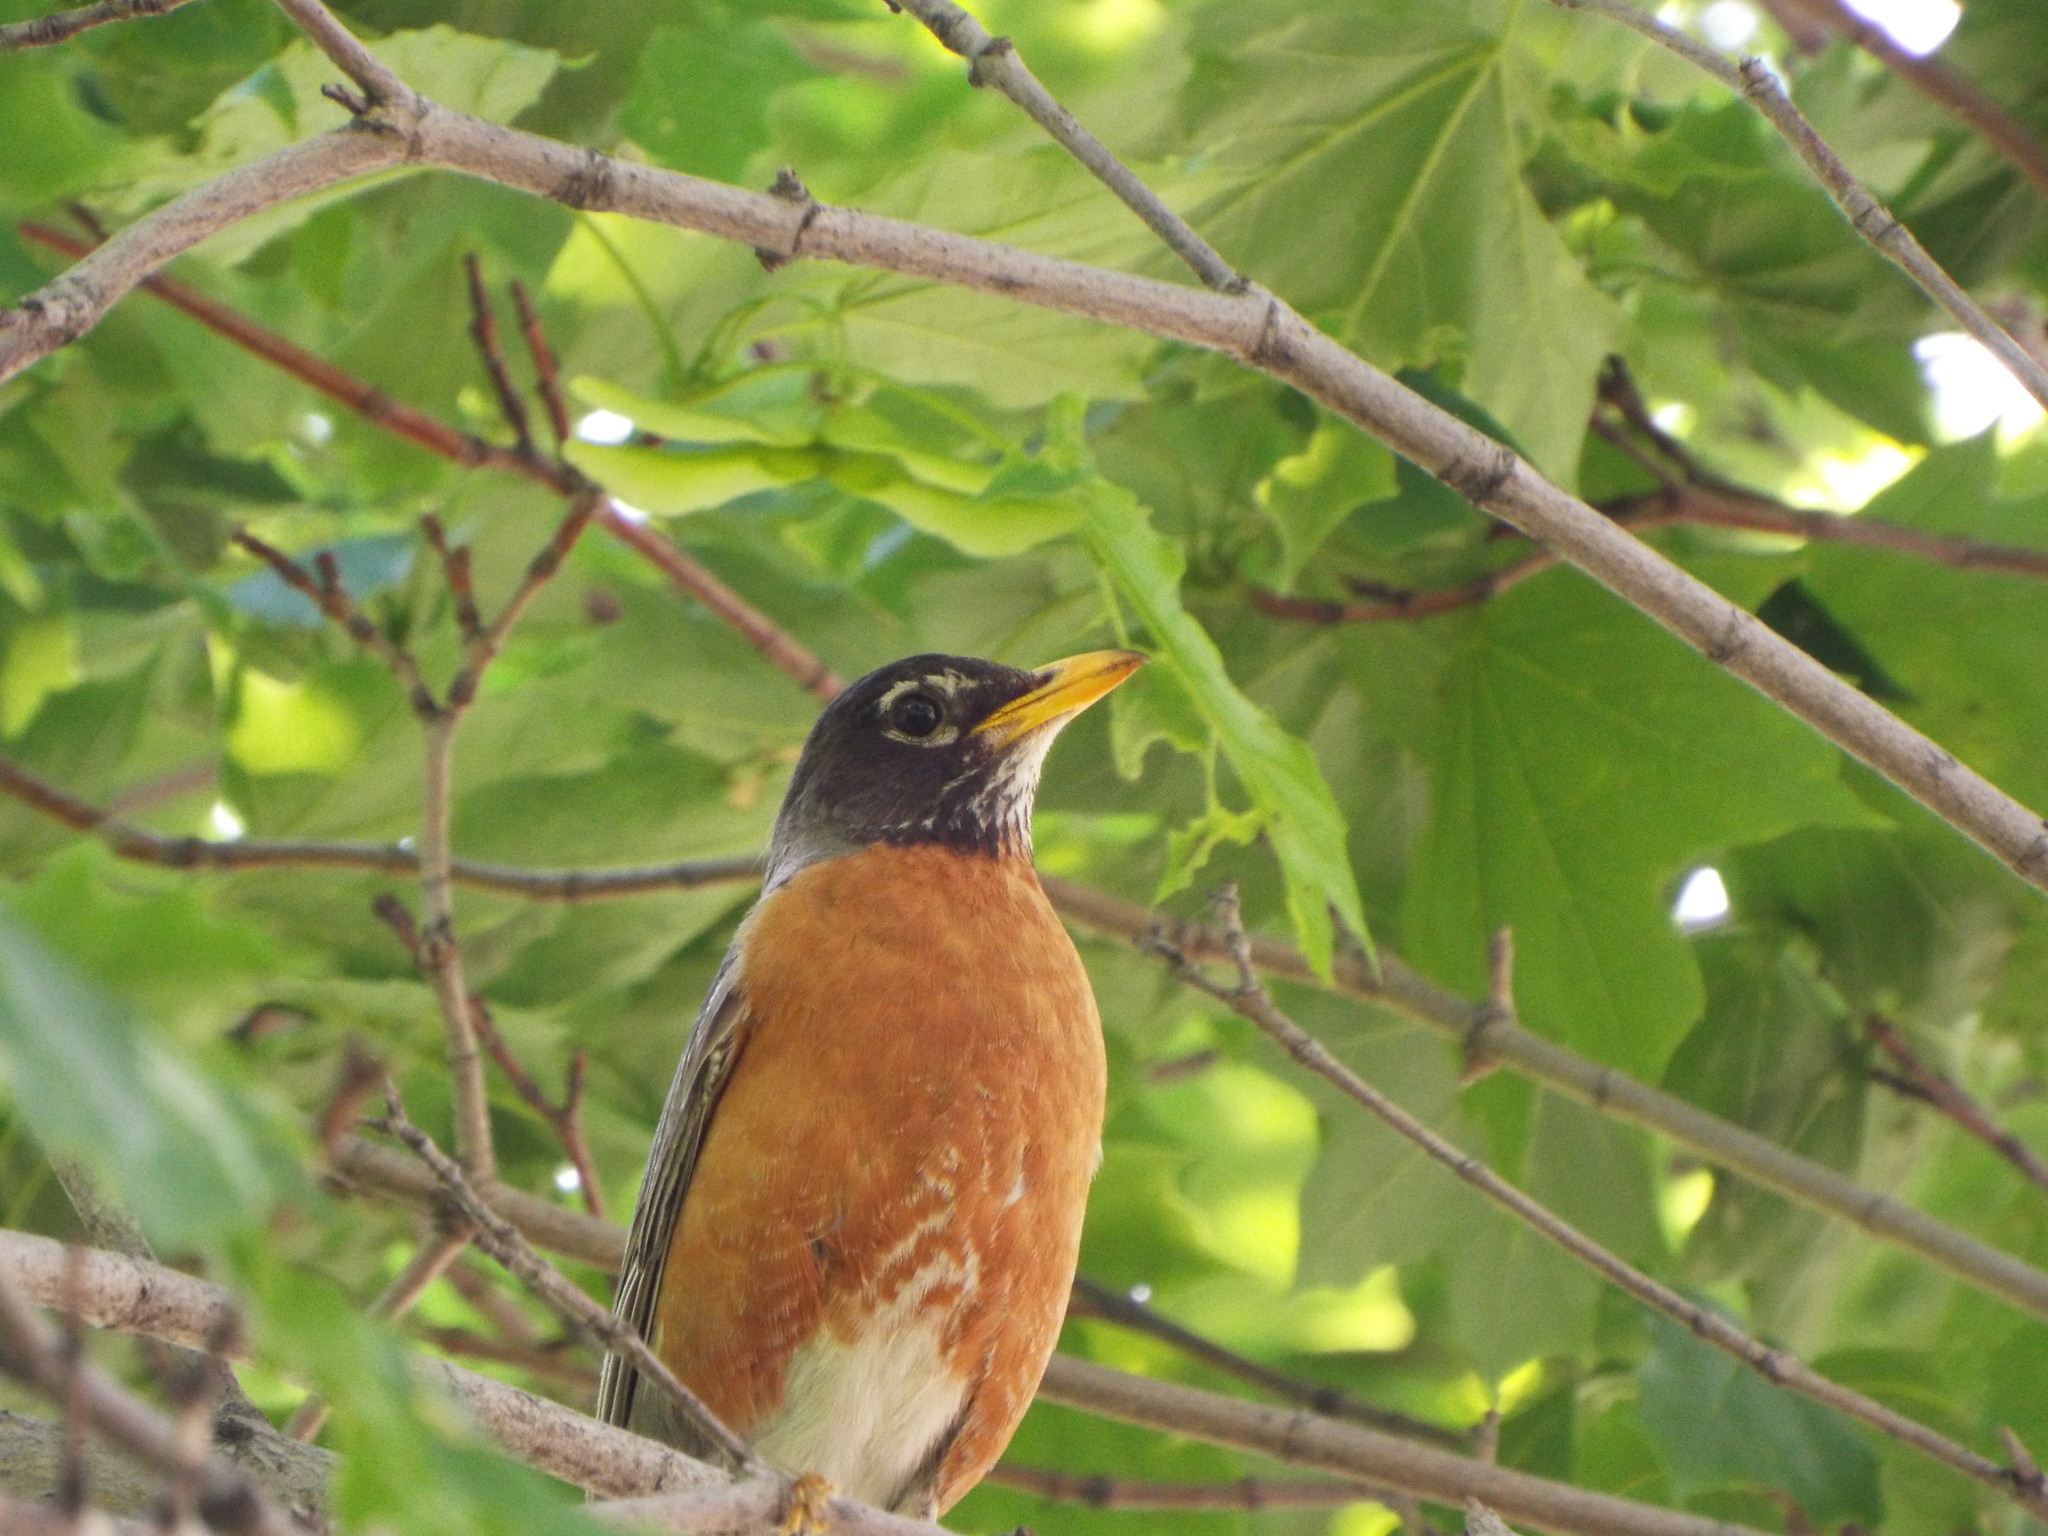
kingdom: Animalia
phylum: Chordata
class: Aves
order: Passeriformes
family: Turdidae
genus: Turdus
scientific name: Turdus migratorius
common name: American robin
